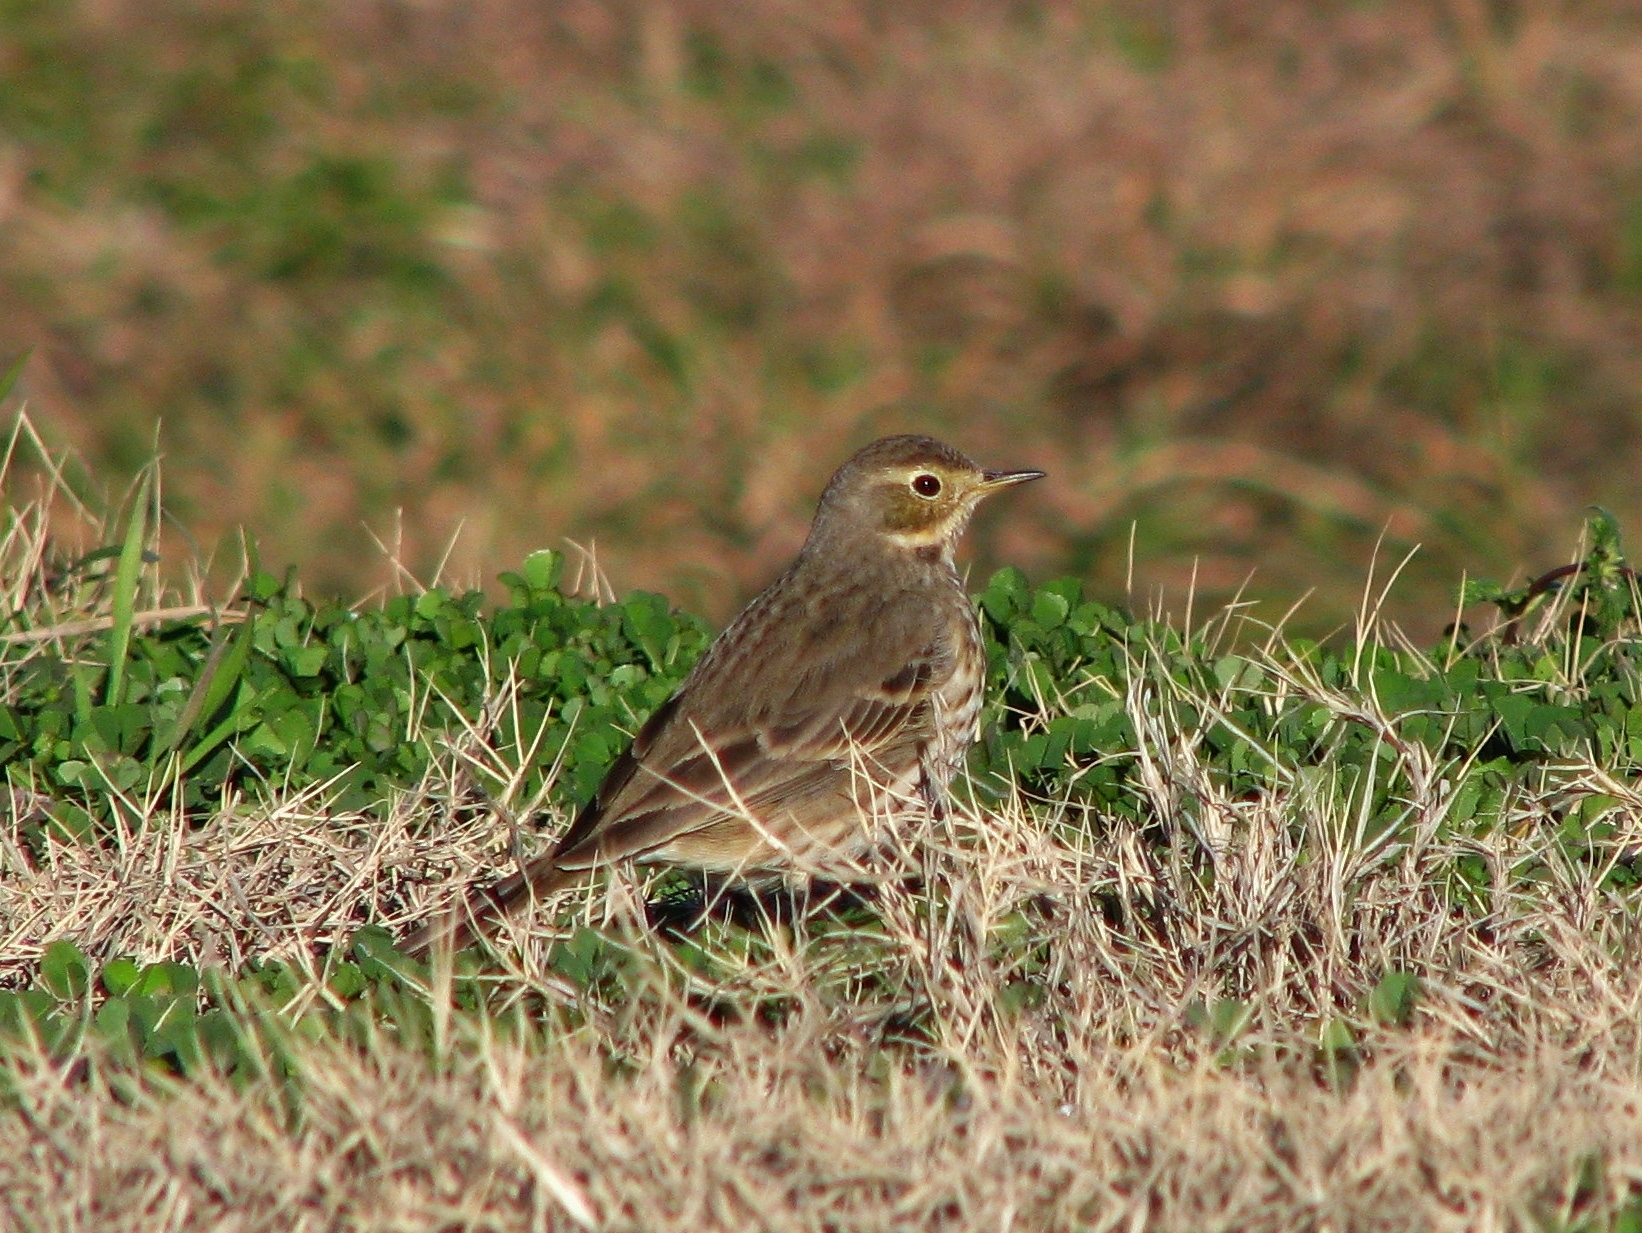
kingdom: Animalia
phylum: Chordata
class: Aves
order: Passeriformes
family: Motacillidae
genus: Anthus
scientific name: Anthus rubescens
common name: Buff-bellied pipit
